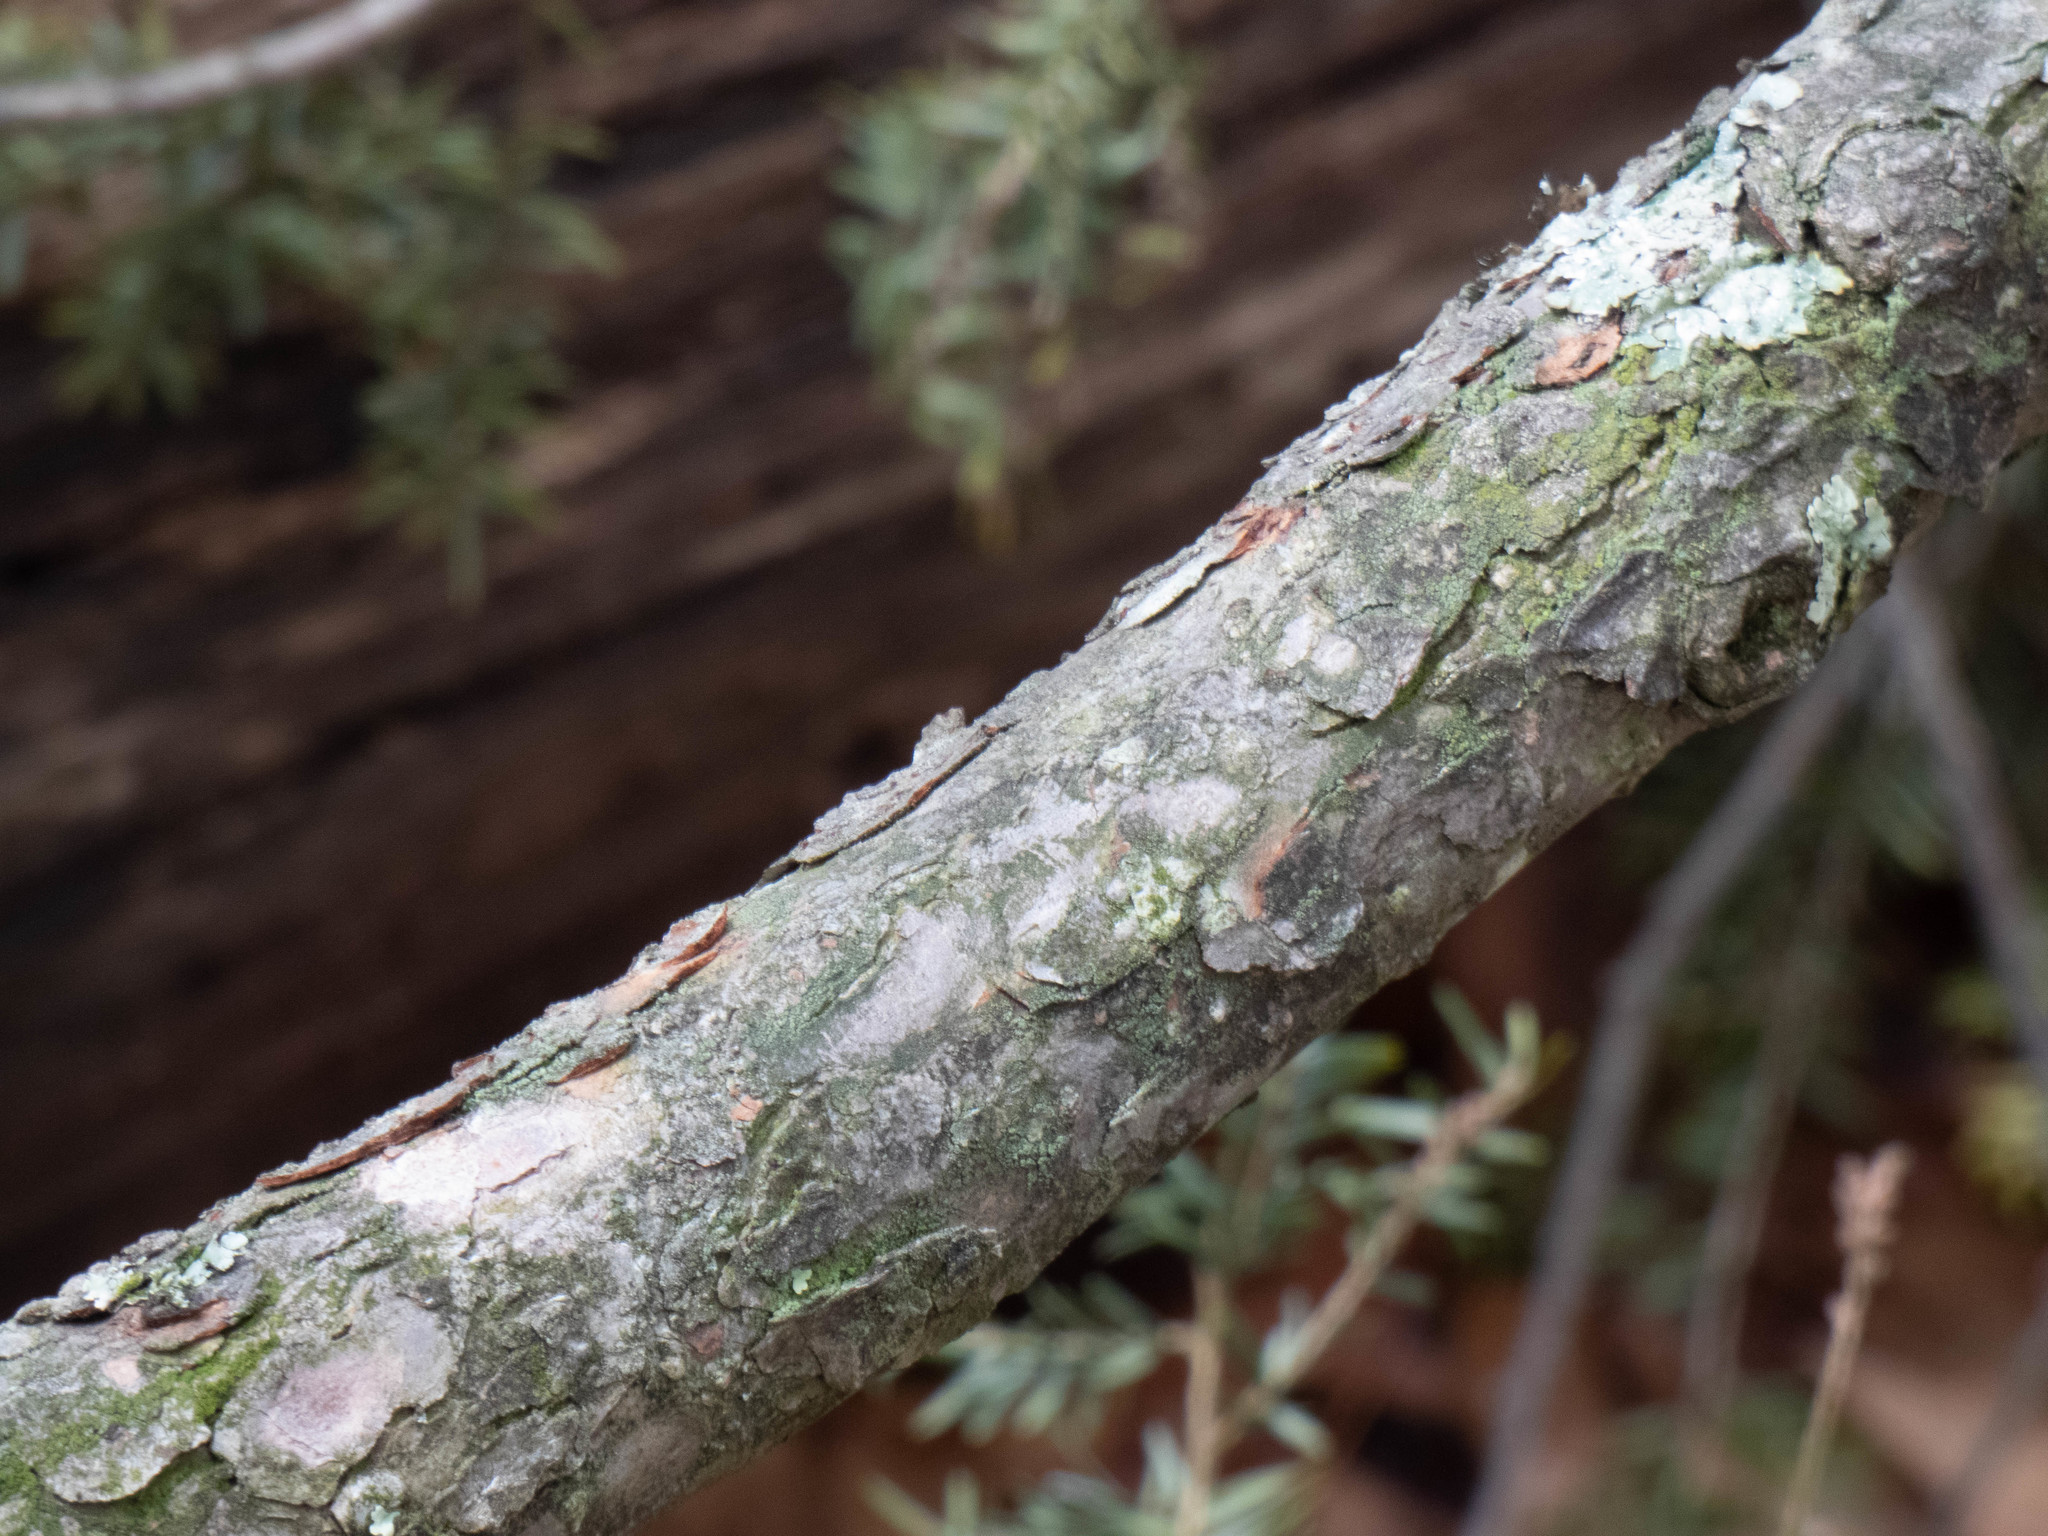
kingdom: Plantae
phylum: Tracheophyta
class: Pinopsida
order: Pinales
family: Pinaceae
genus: Tsuga
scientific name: Tsuga canadensis
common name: Eastern hemlock
